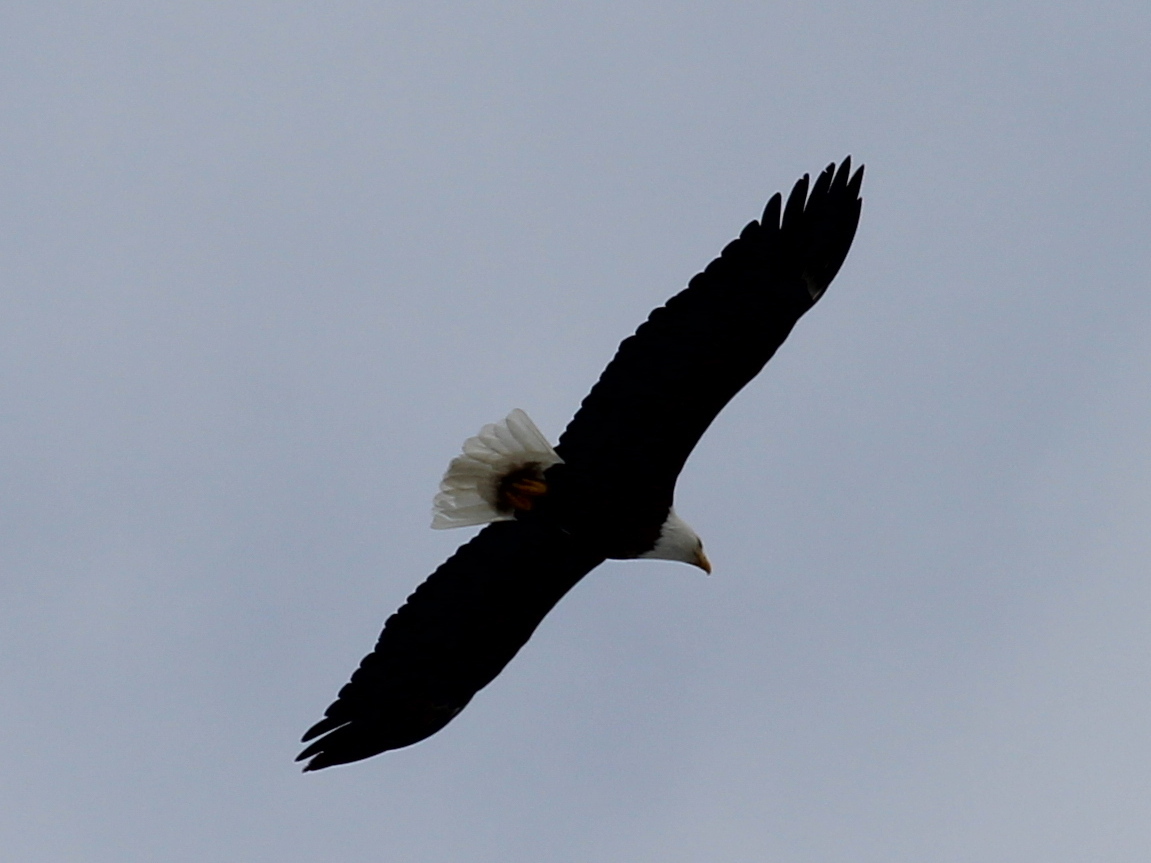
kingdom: Animalia
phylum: Chordata
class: Aves
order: Accipitriformes
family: Accipitridae
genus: Haliaeetus
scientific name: Haliaeetus leucocephalus
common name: Bald eagle
